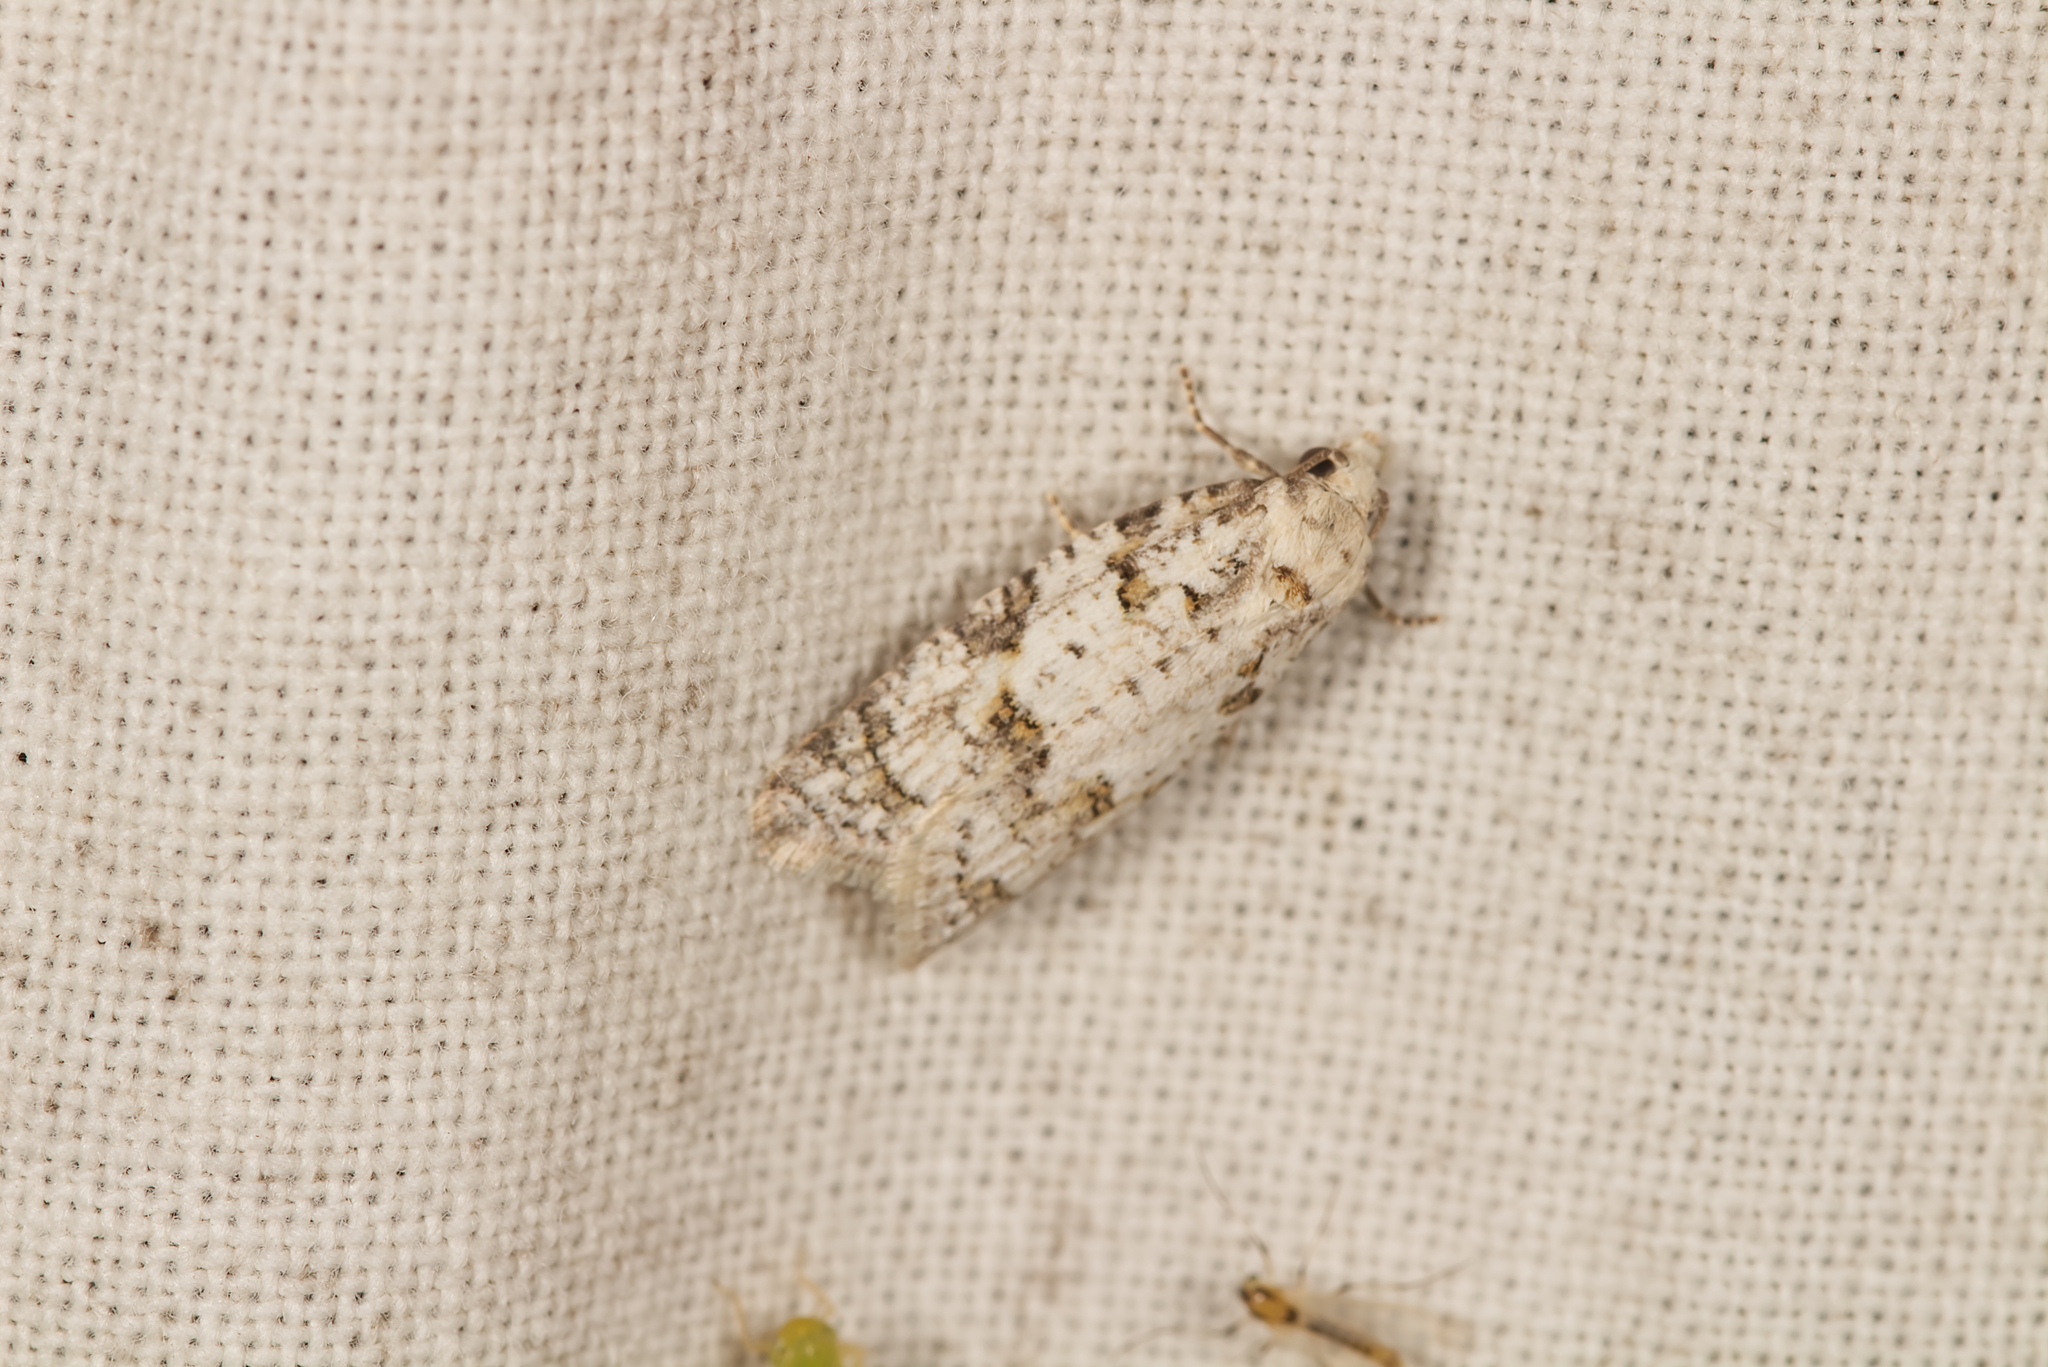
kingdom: Animalia
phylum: Arthropoda
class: Insecta
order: Lepidoptera
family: Tortricidae
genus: Eana
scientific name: Eana canescana
